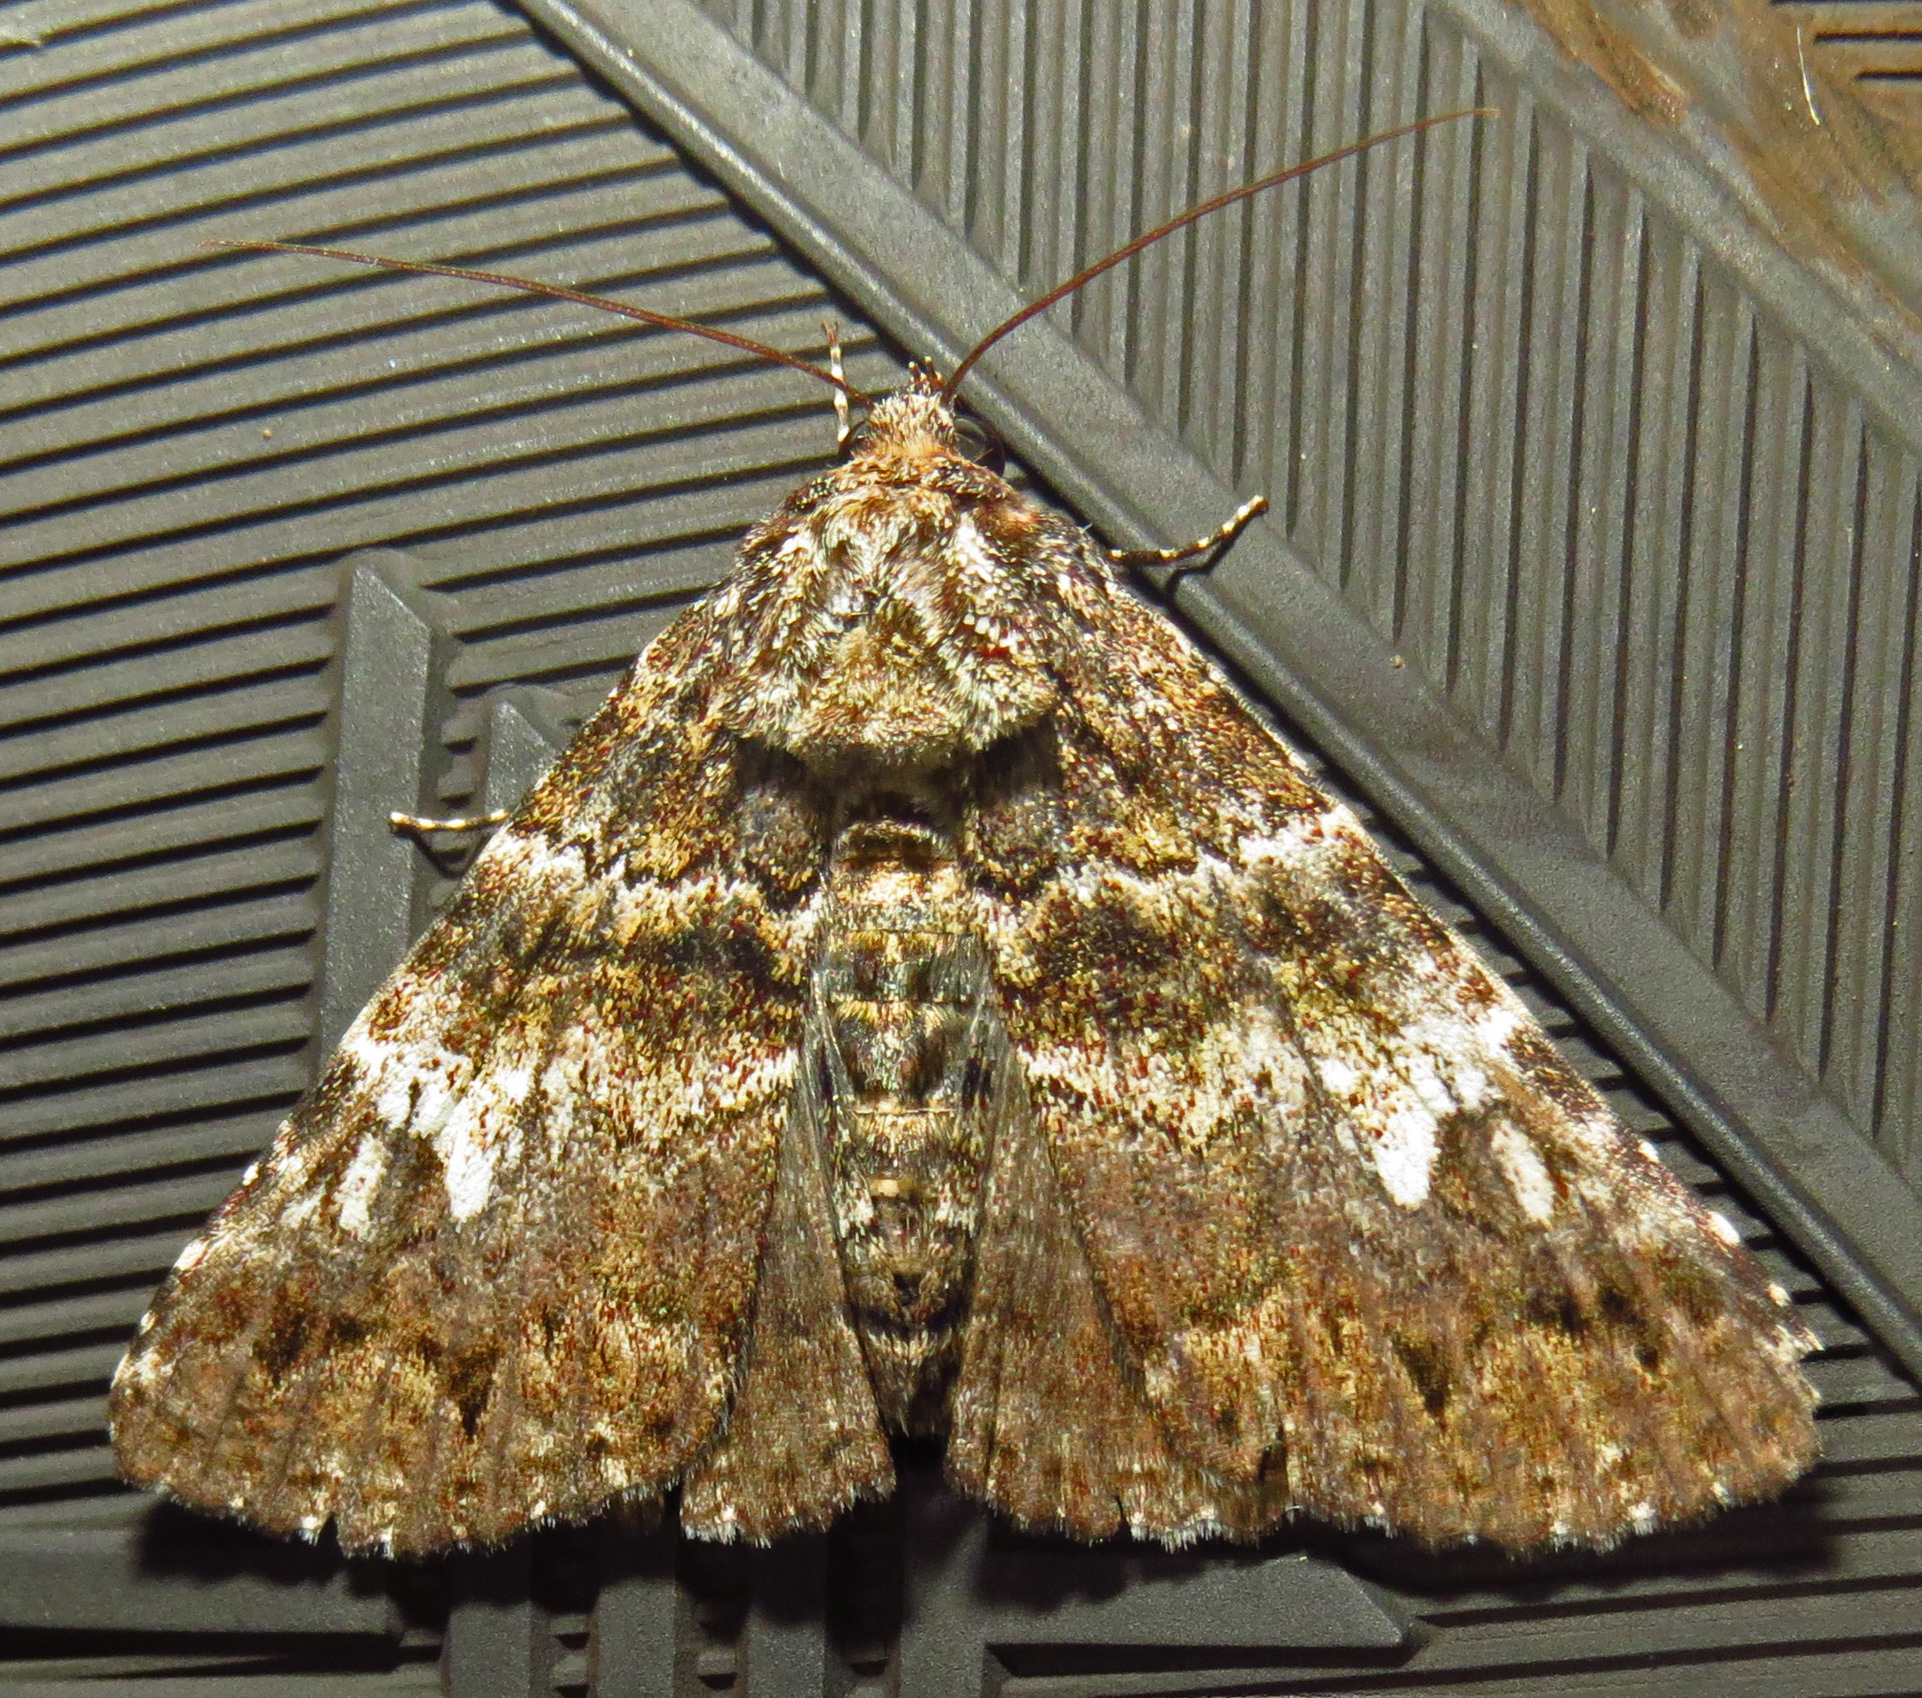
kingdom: Animalia
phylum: Arthropoda
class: Insecta
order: Lepidoptera
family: Erebidae
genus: Metria
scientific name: Metria amella
